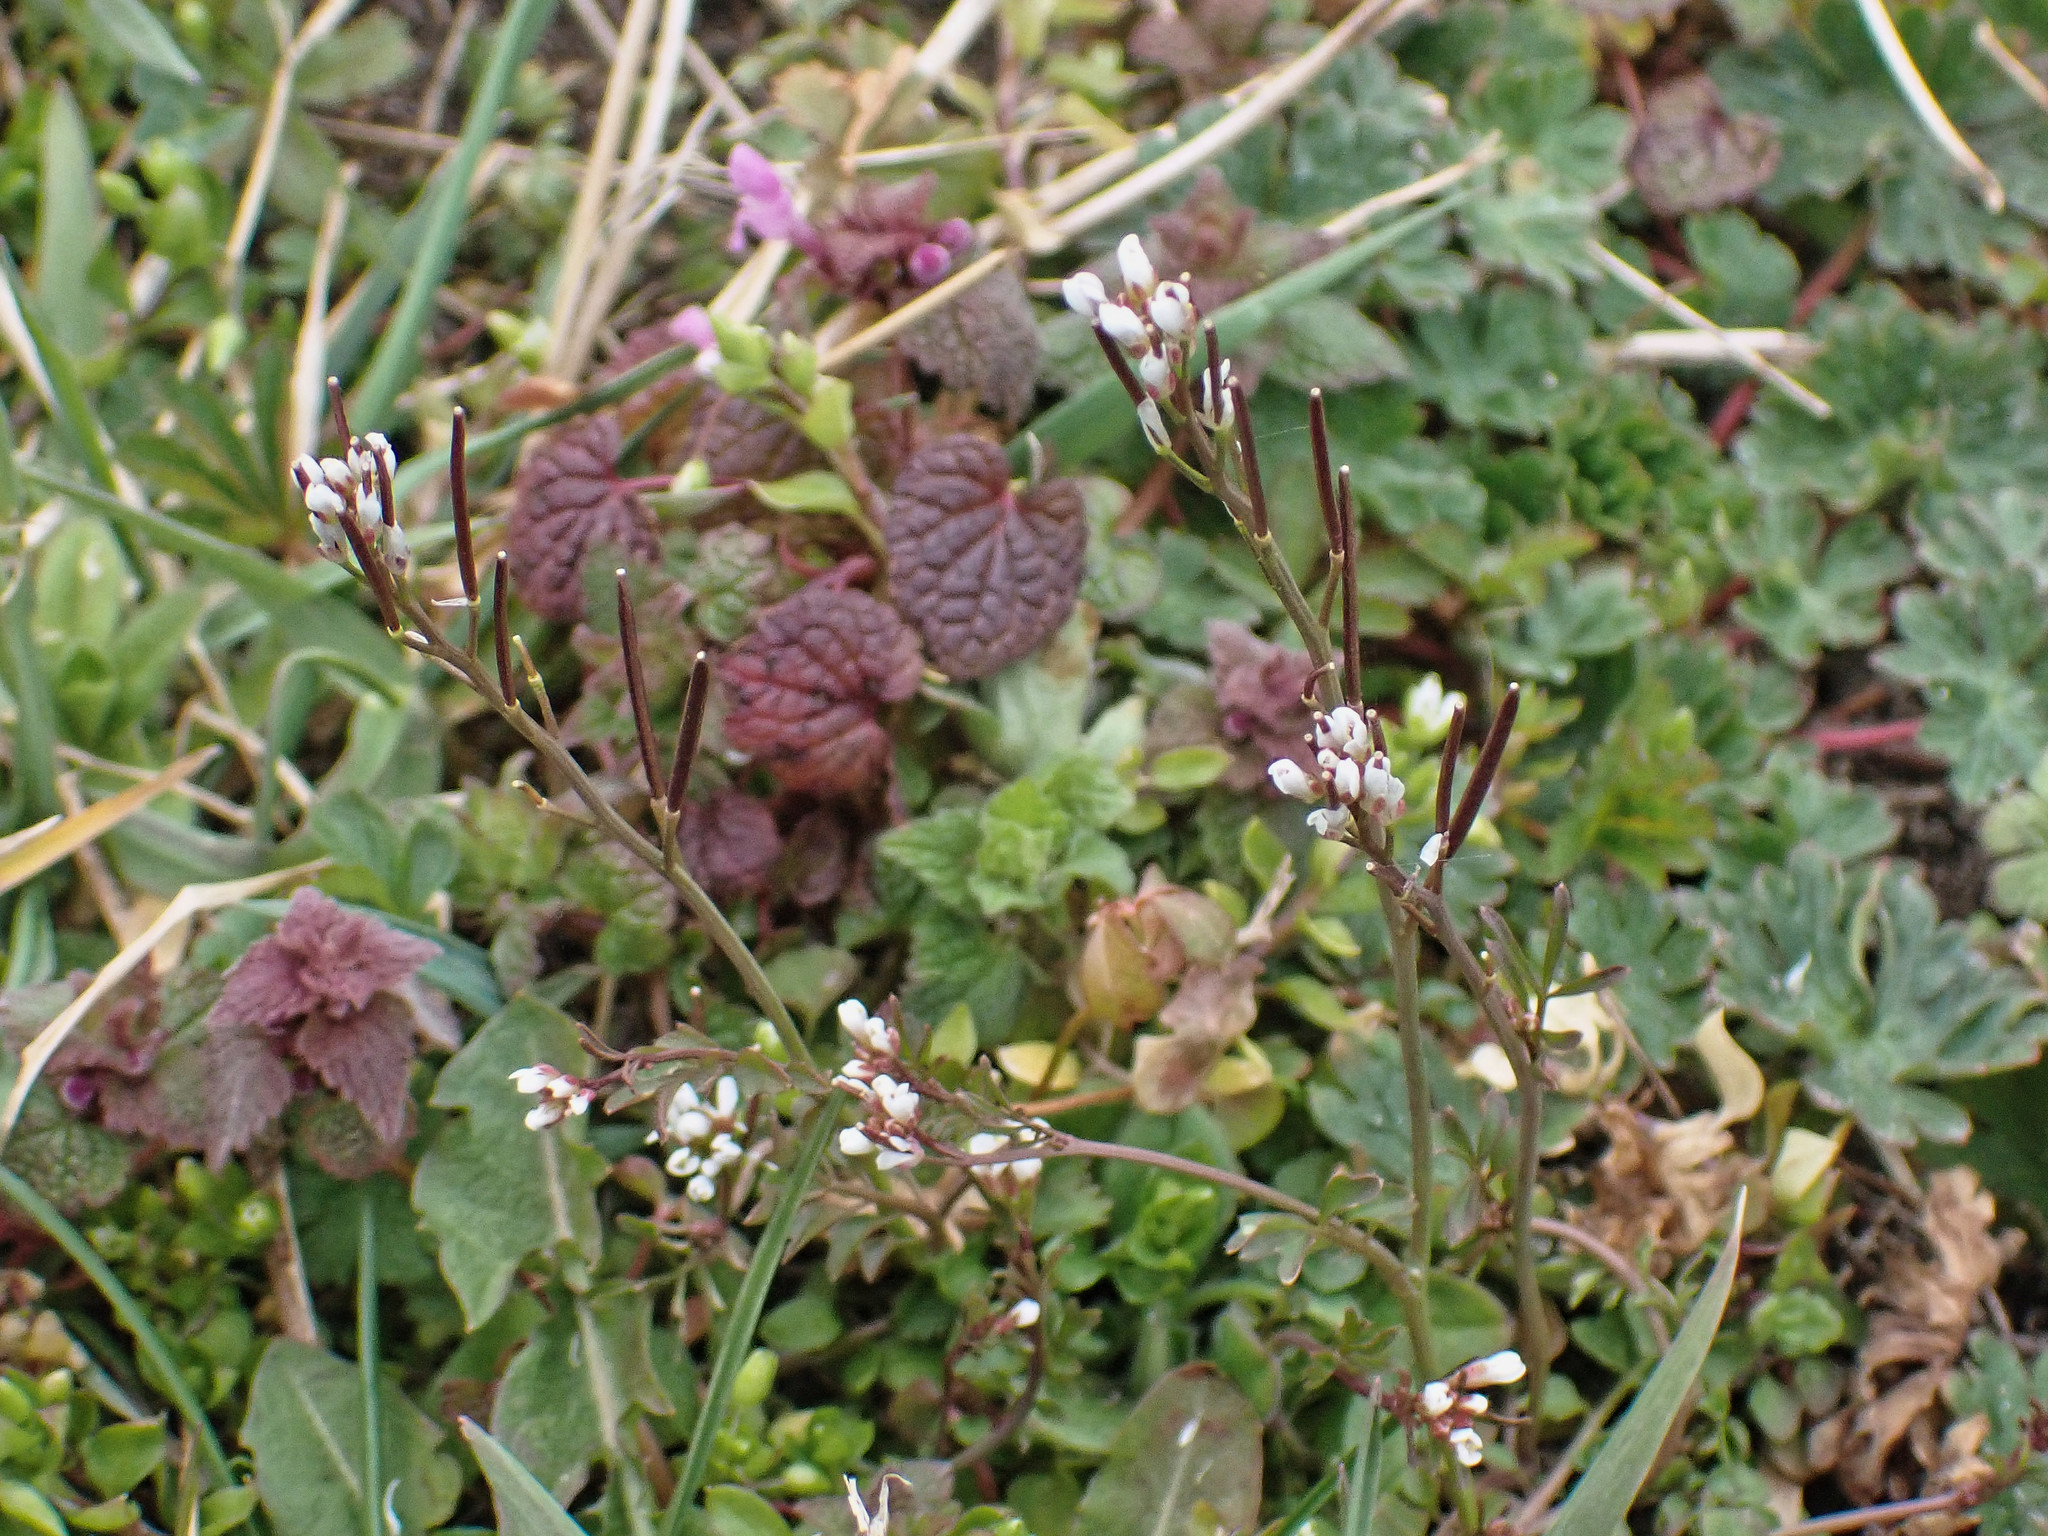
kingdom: Plantae
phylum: Tracheophyta
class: Magnoliopsida
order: Brassicales
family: Brassicaceae
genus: Cardamine
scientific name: Cardamine hirsuta
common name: Hairy bittercress
